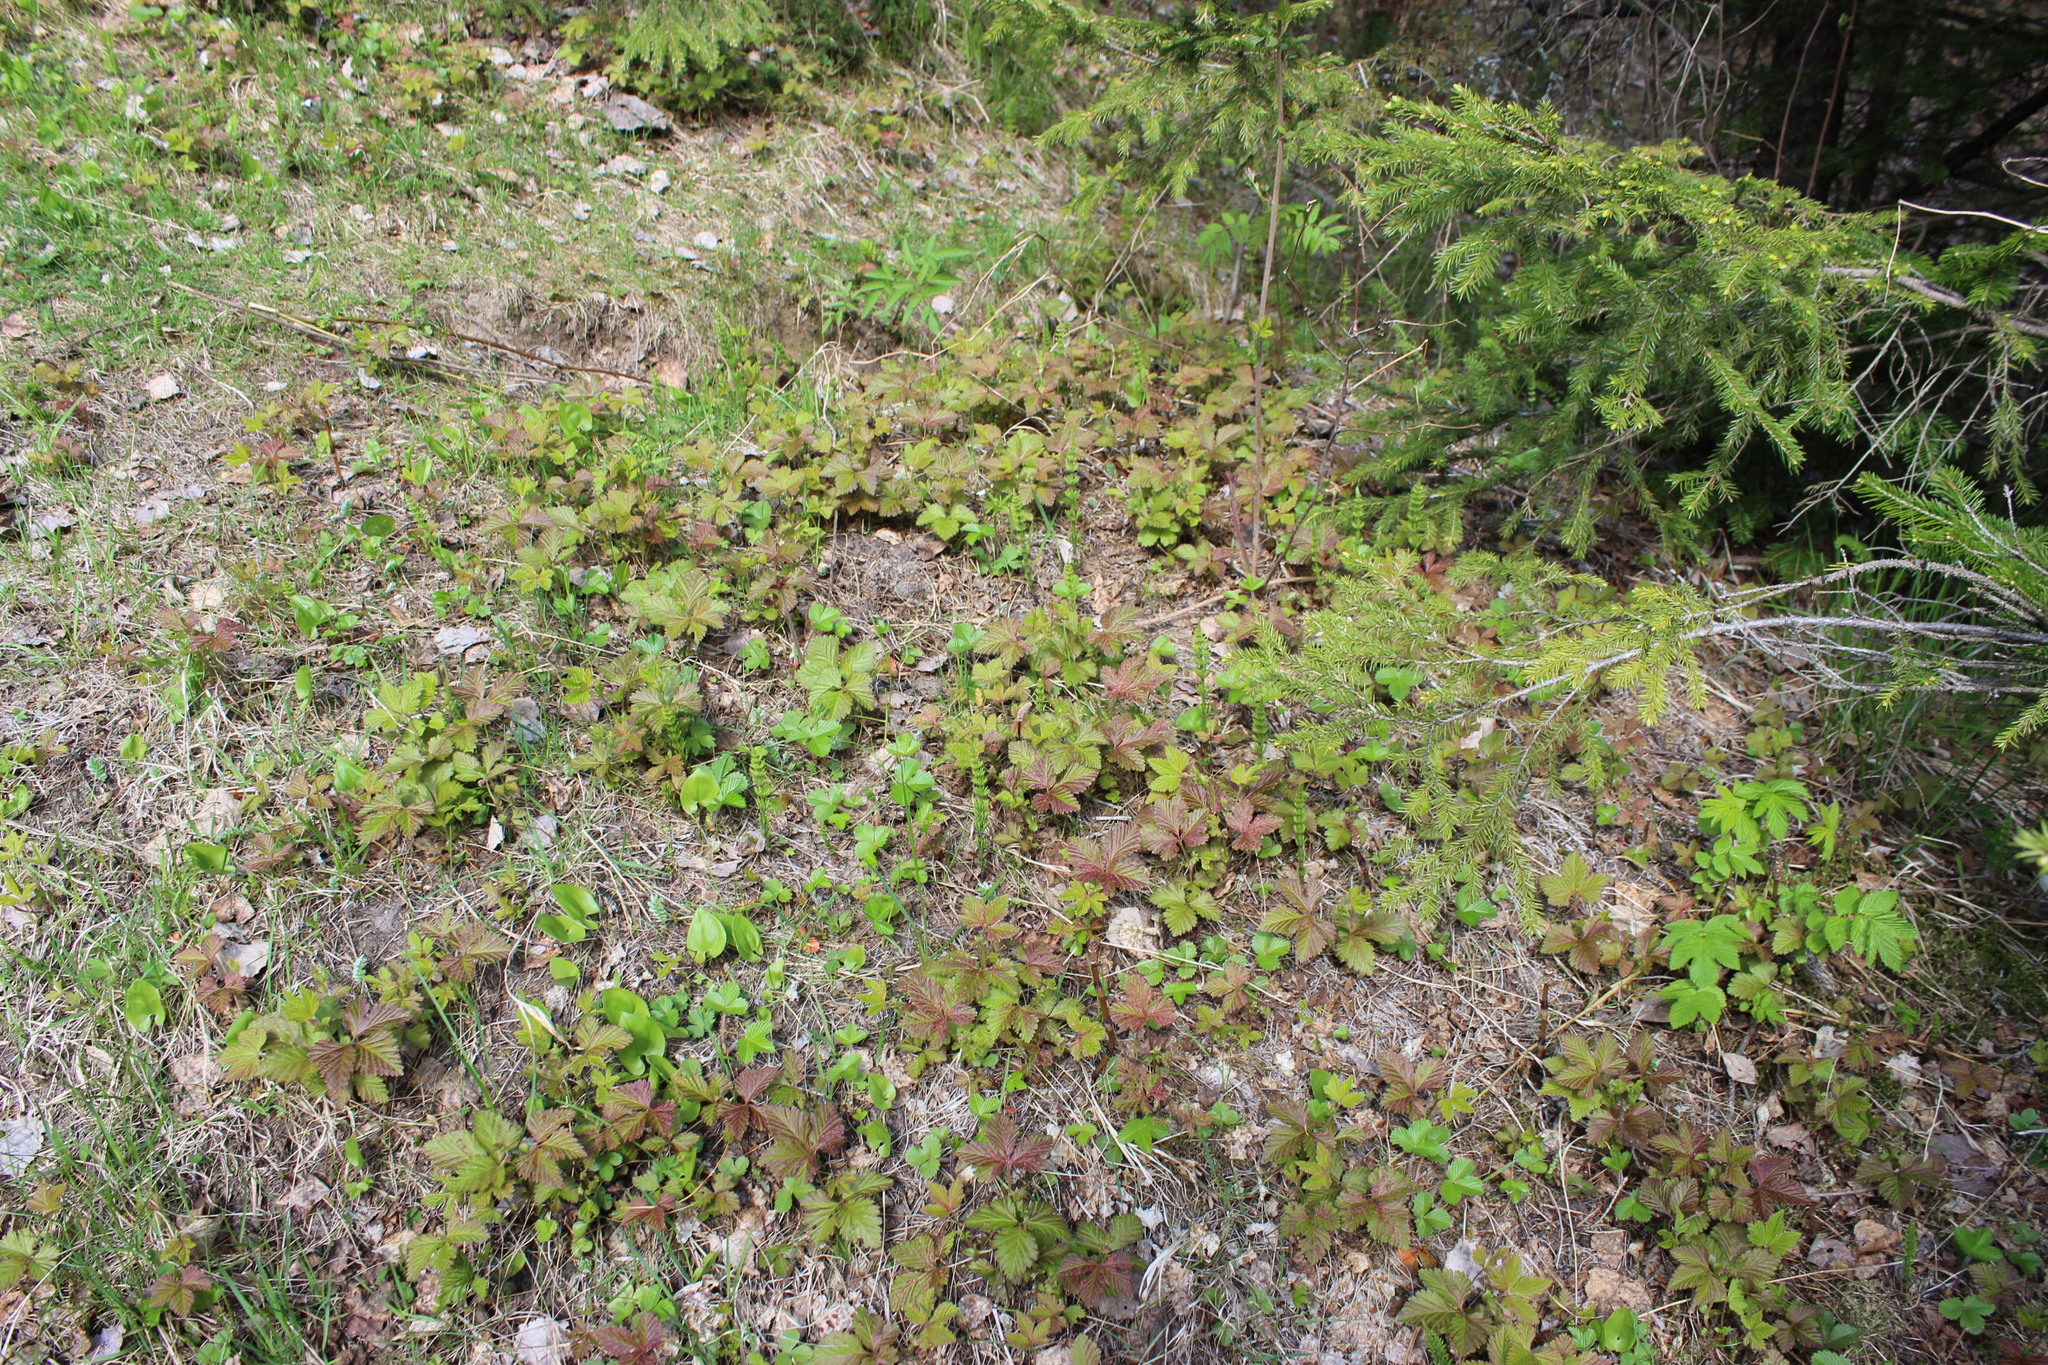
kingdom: Plantae
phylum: Tracheophyta
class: Magnoliopsida
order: Rosales
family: Rosaceae
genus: Rubus
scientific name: Rubus arcticus
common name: Arctic bramble
